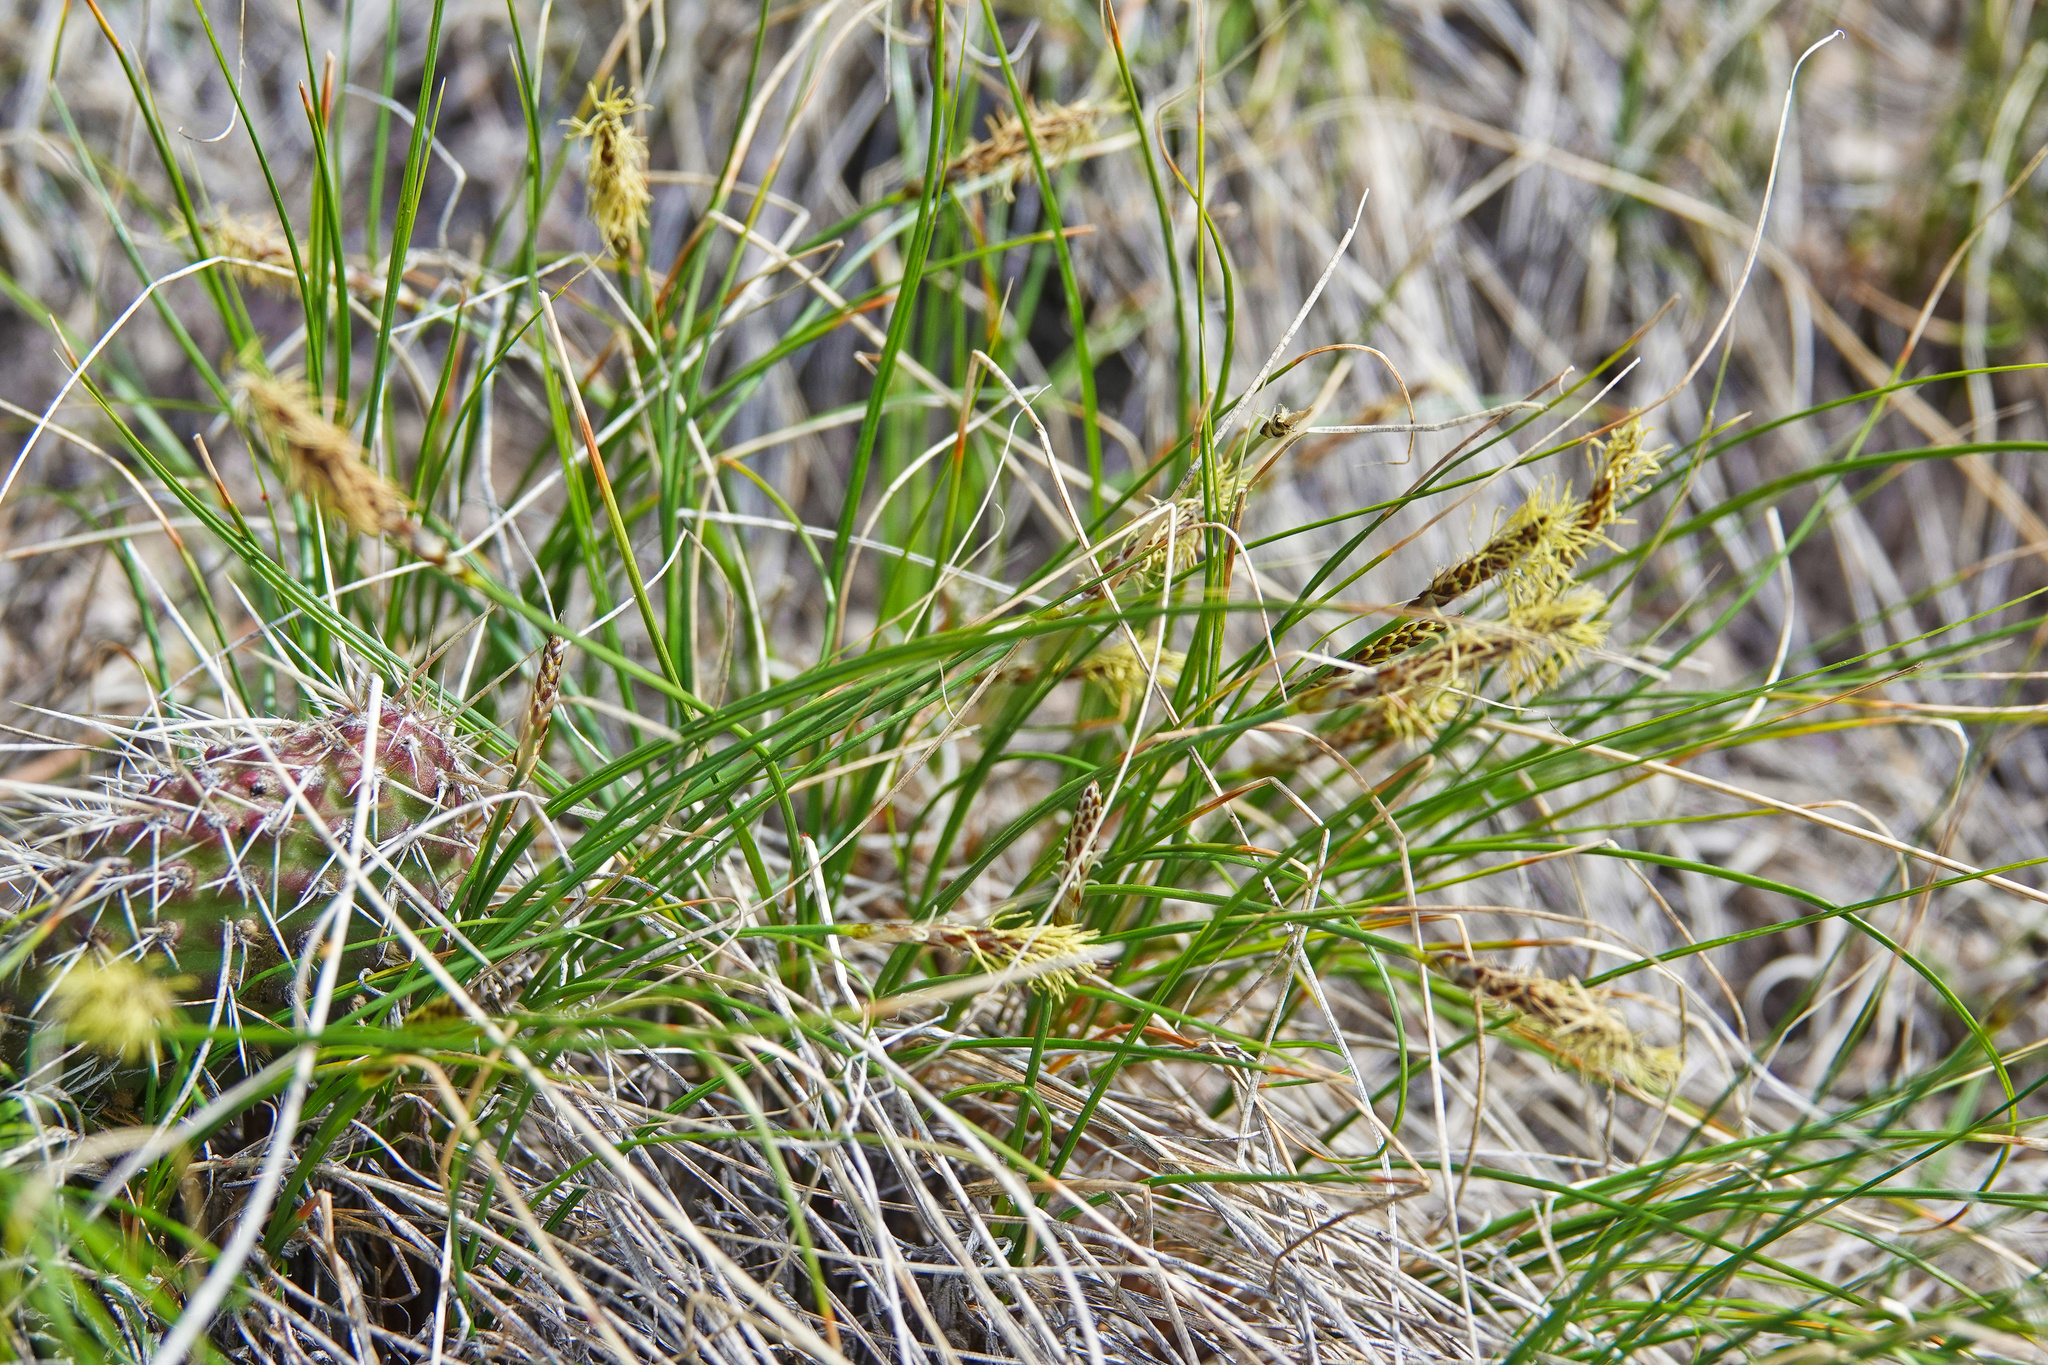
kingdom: Plantae
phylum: Tracheophyta
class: Liliopsida
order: Poales
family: Cyperaceae
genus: Carex
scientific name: Carex filifolia
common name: Threadleaf sedge
